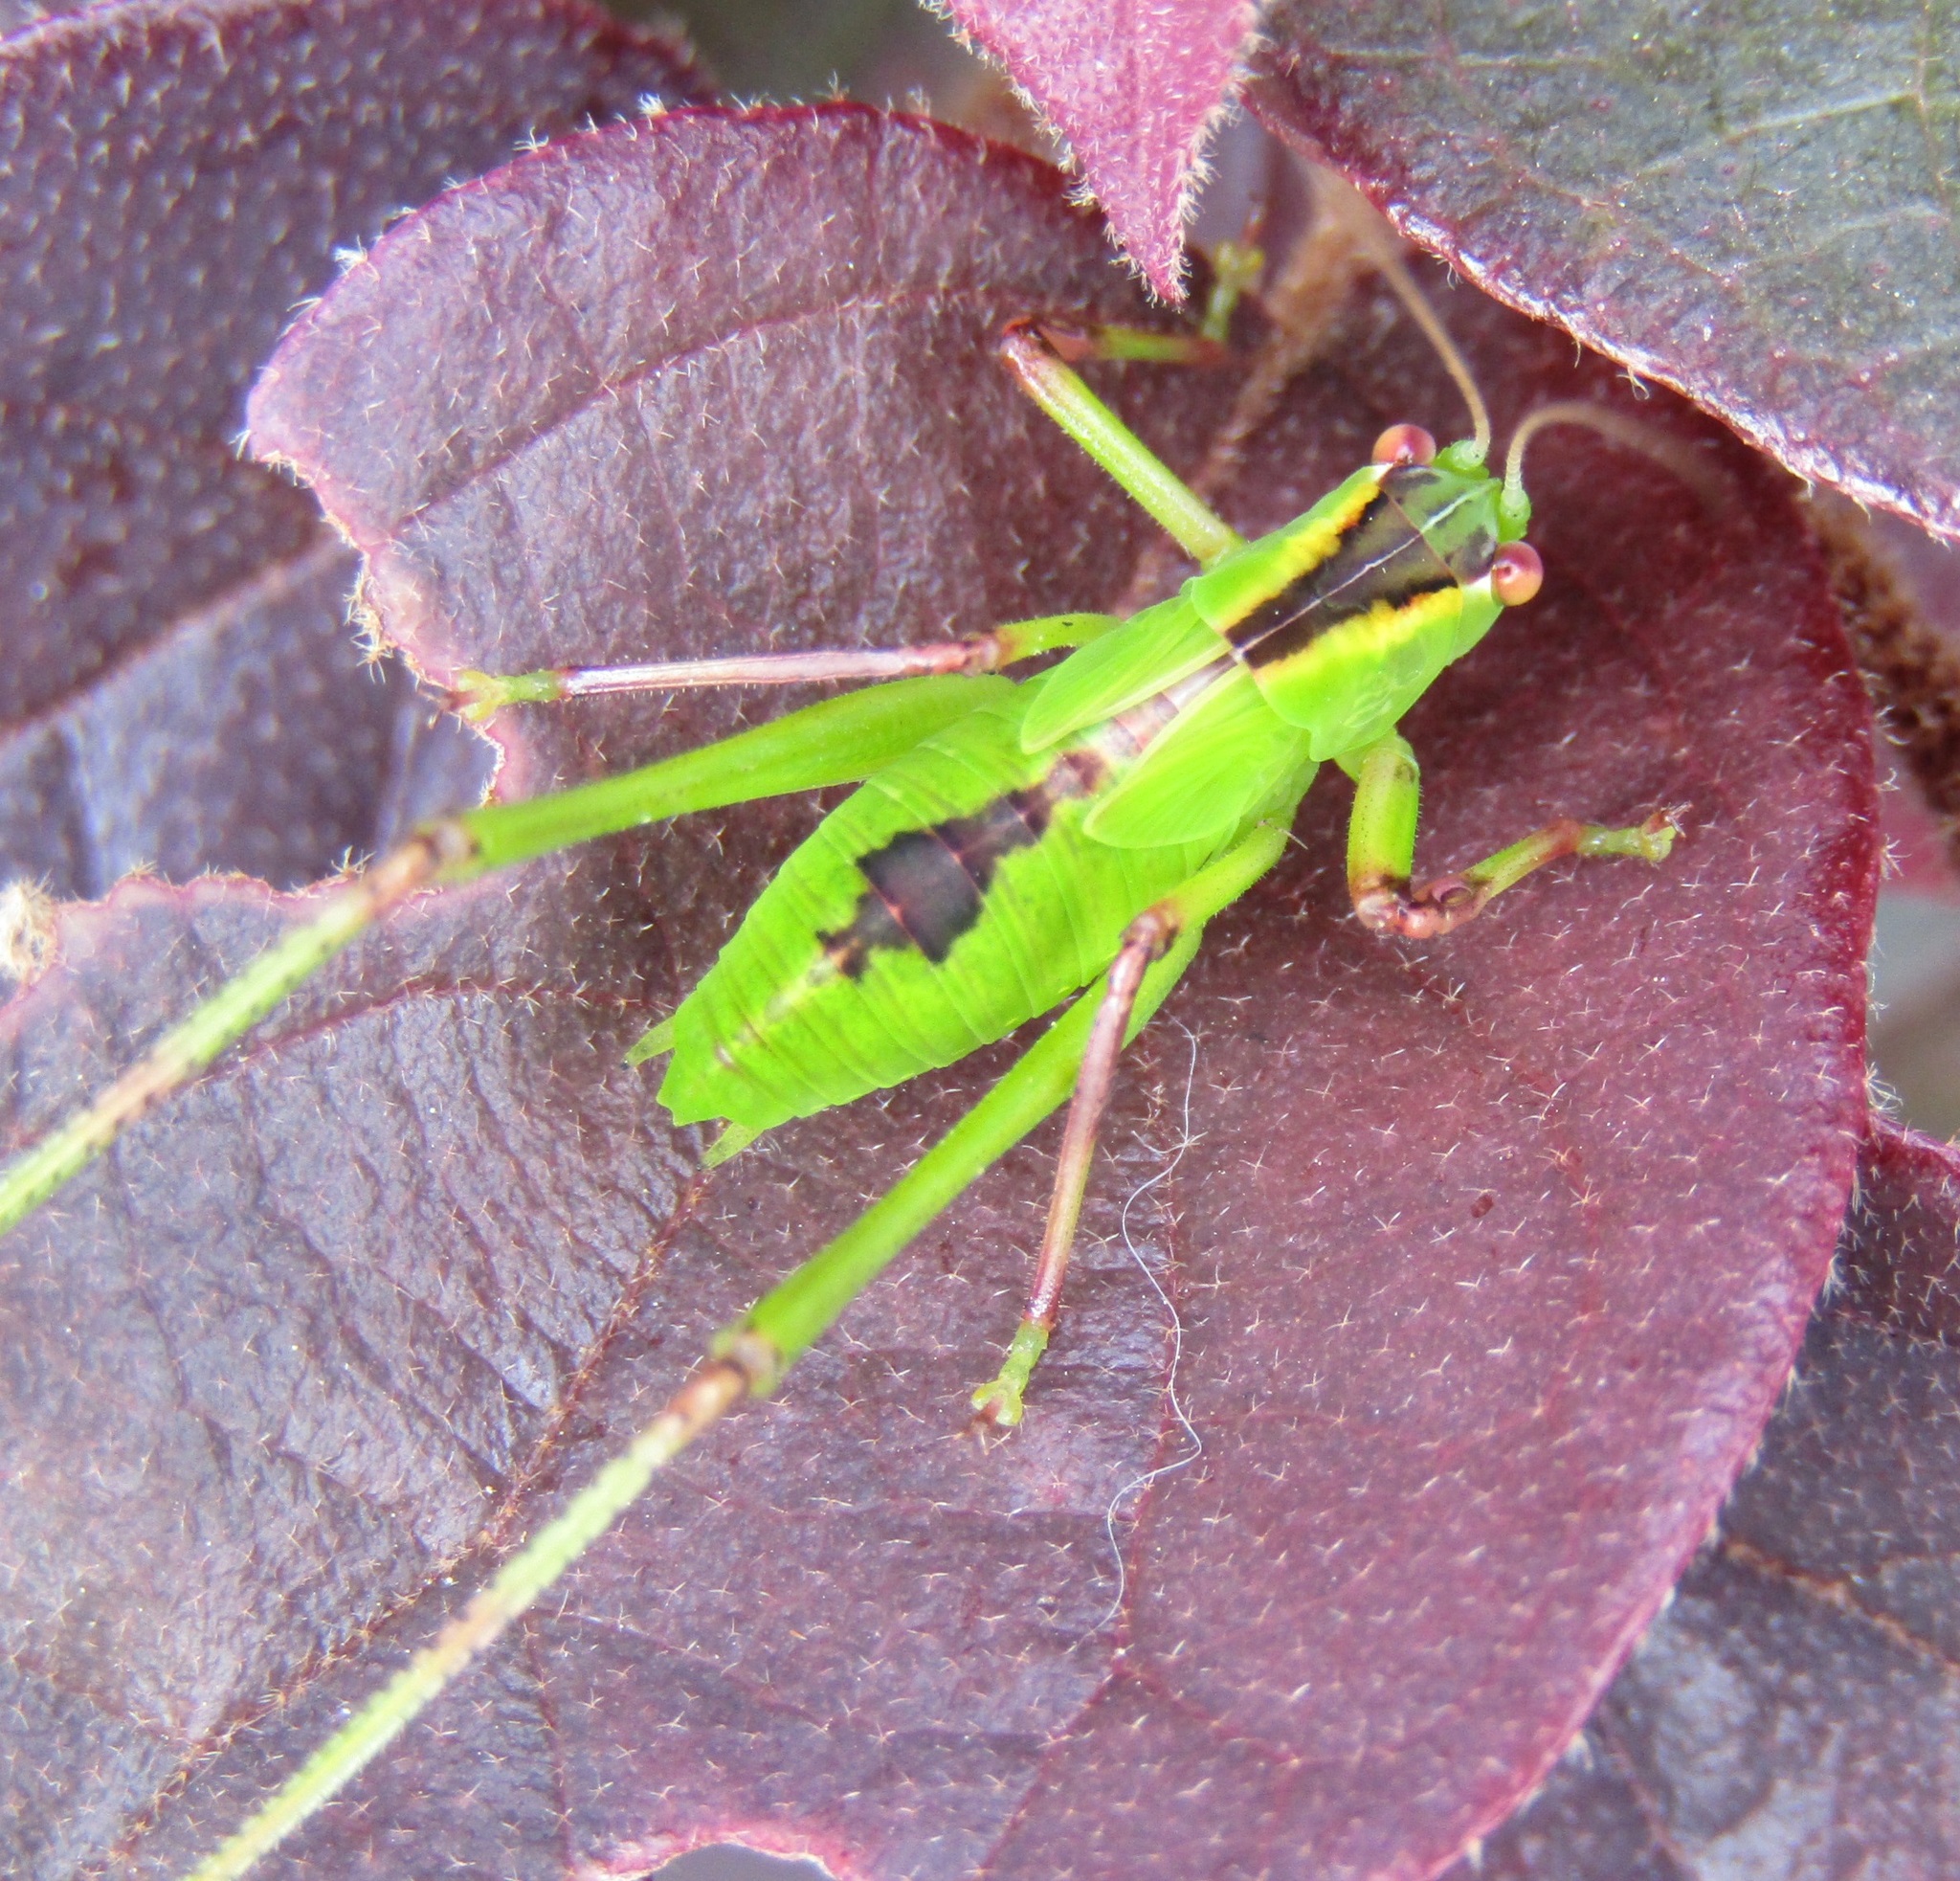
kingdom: Animalia
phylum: Arthropoda
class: Insecta
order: Orthoptera
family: Tettigoniidae
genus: Caedicia
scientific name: Caedicia simplex
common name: Common garden katydid
